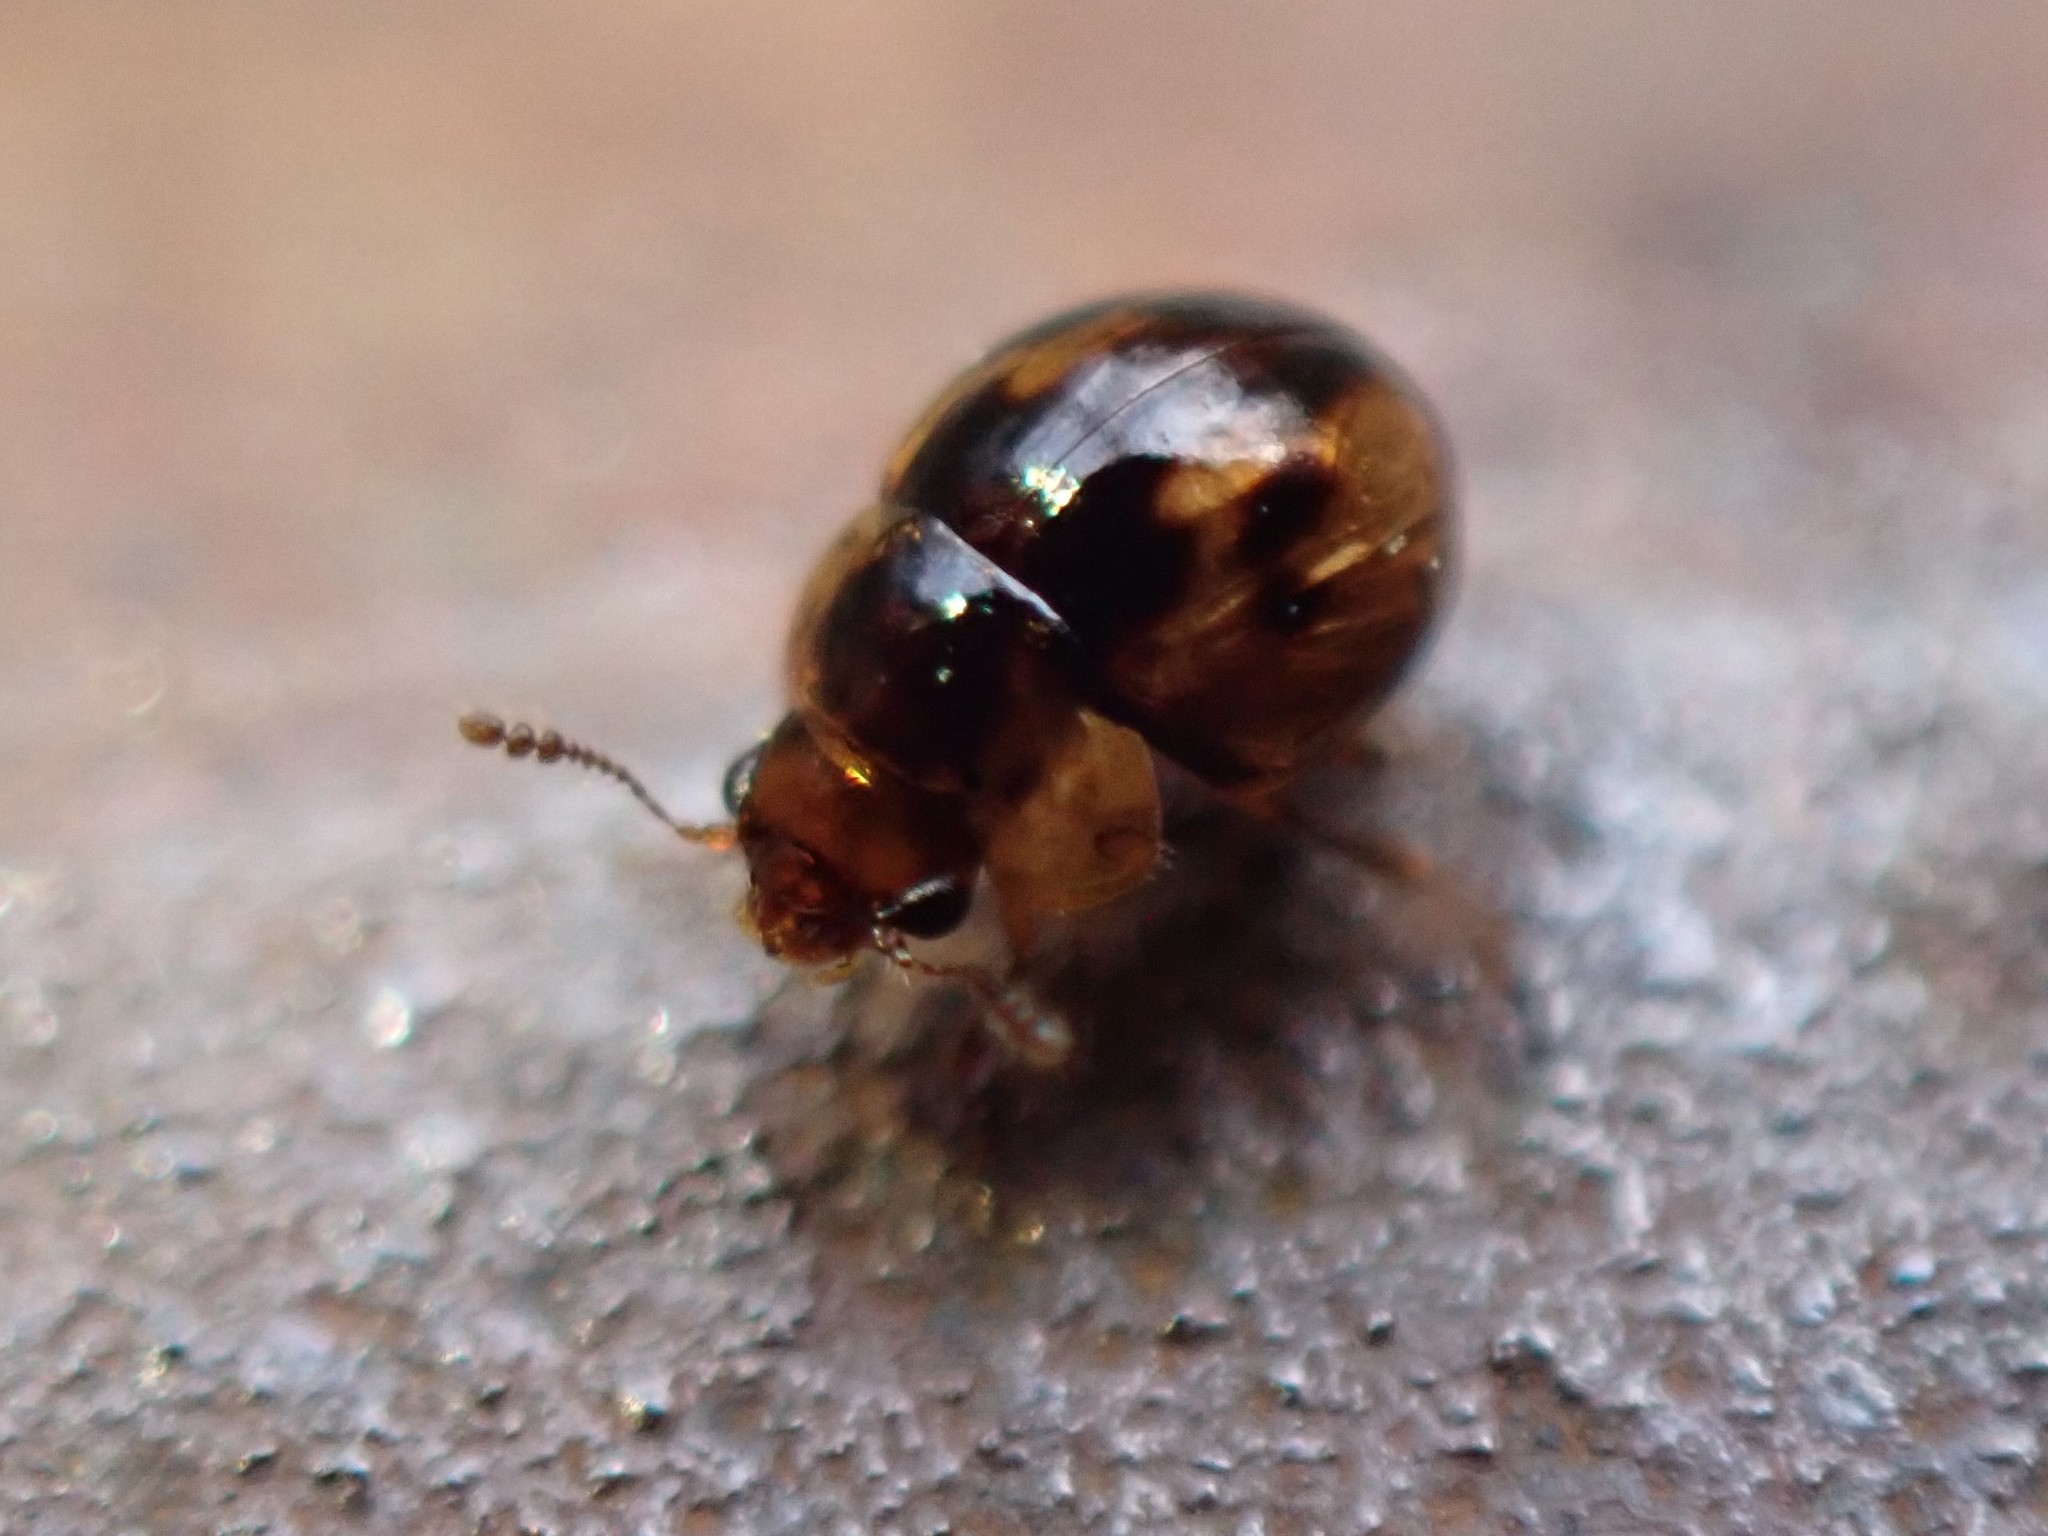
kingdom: Animalia
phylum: Arthropoda
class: Insecta
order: Coleoptera
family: Leiodidae
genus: Agathidium
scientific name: Agathidium maculosum
